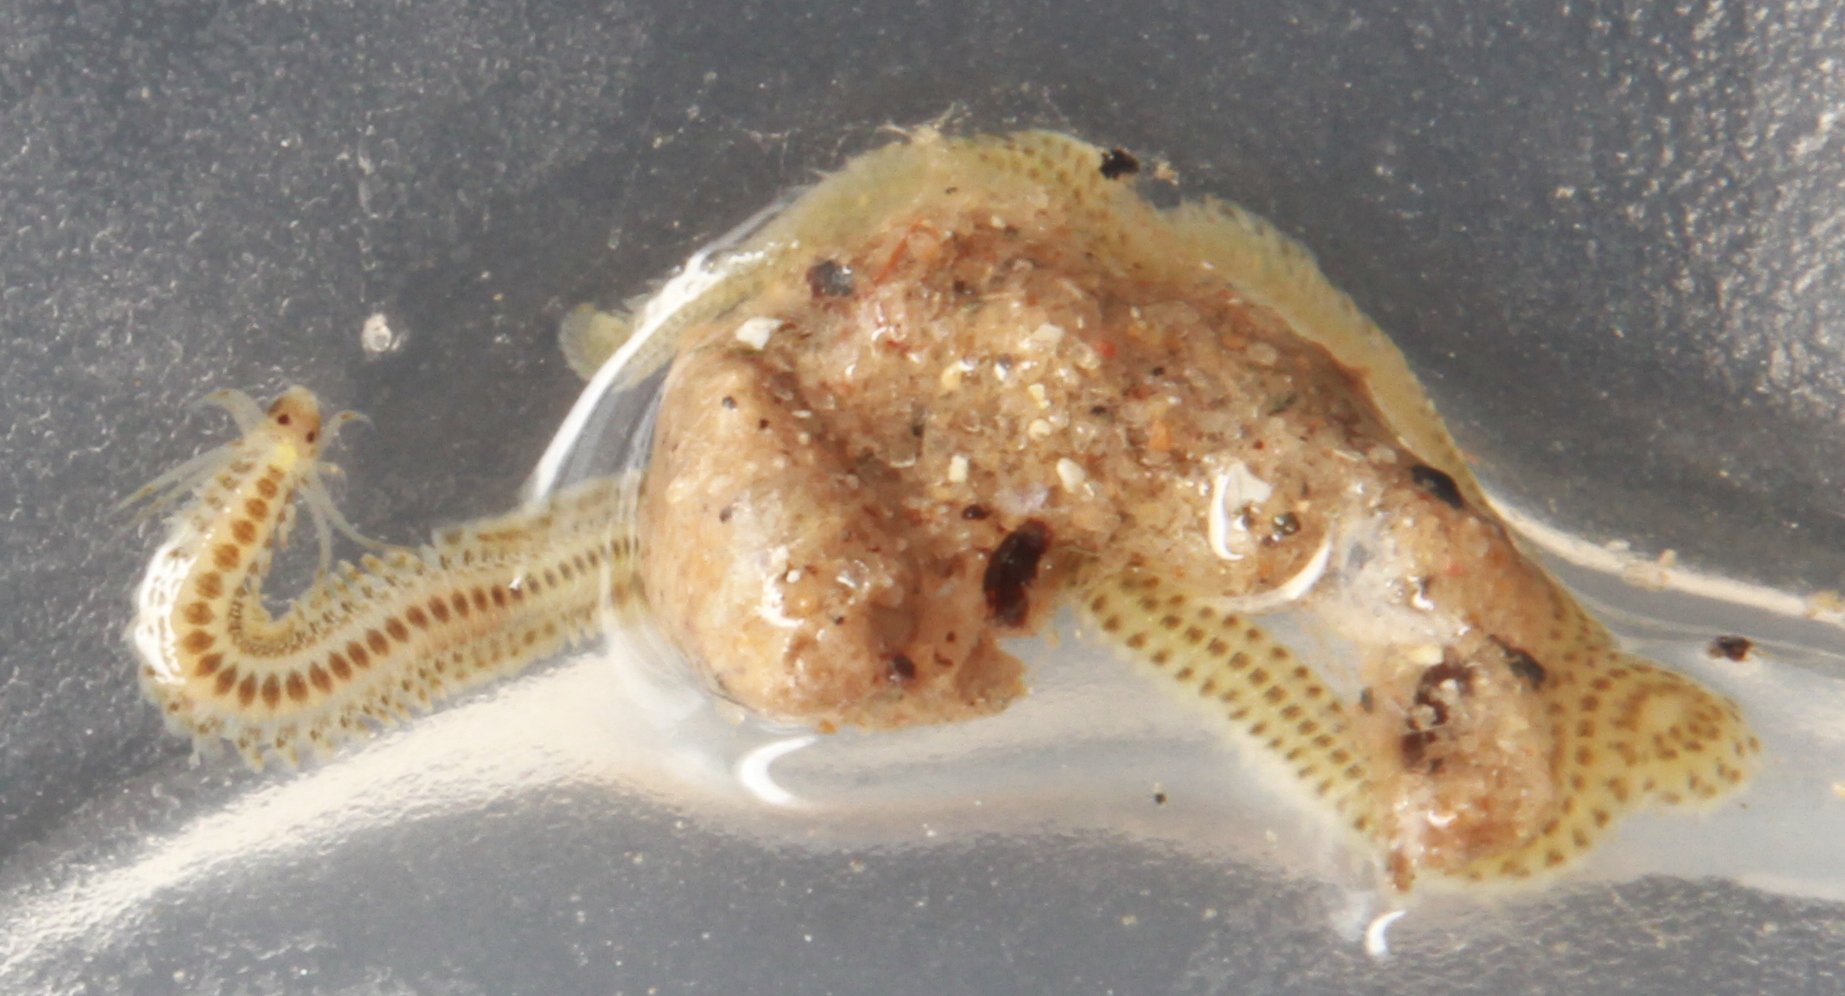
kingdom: Animalia
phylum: Annelida
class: Polychaeta
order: Phyllodocida
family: Phyllodocidae
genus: Phyllodoce
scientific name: Phyllodoce mucosa
